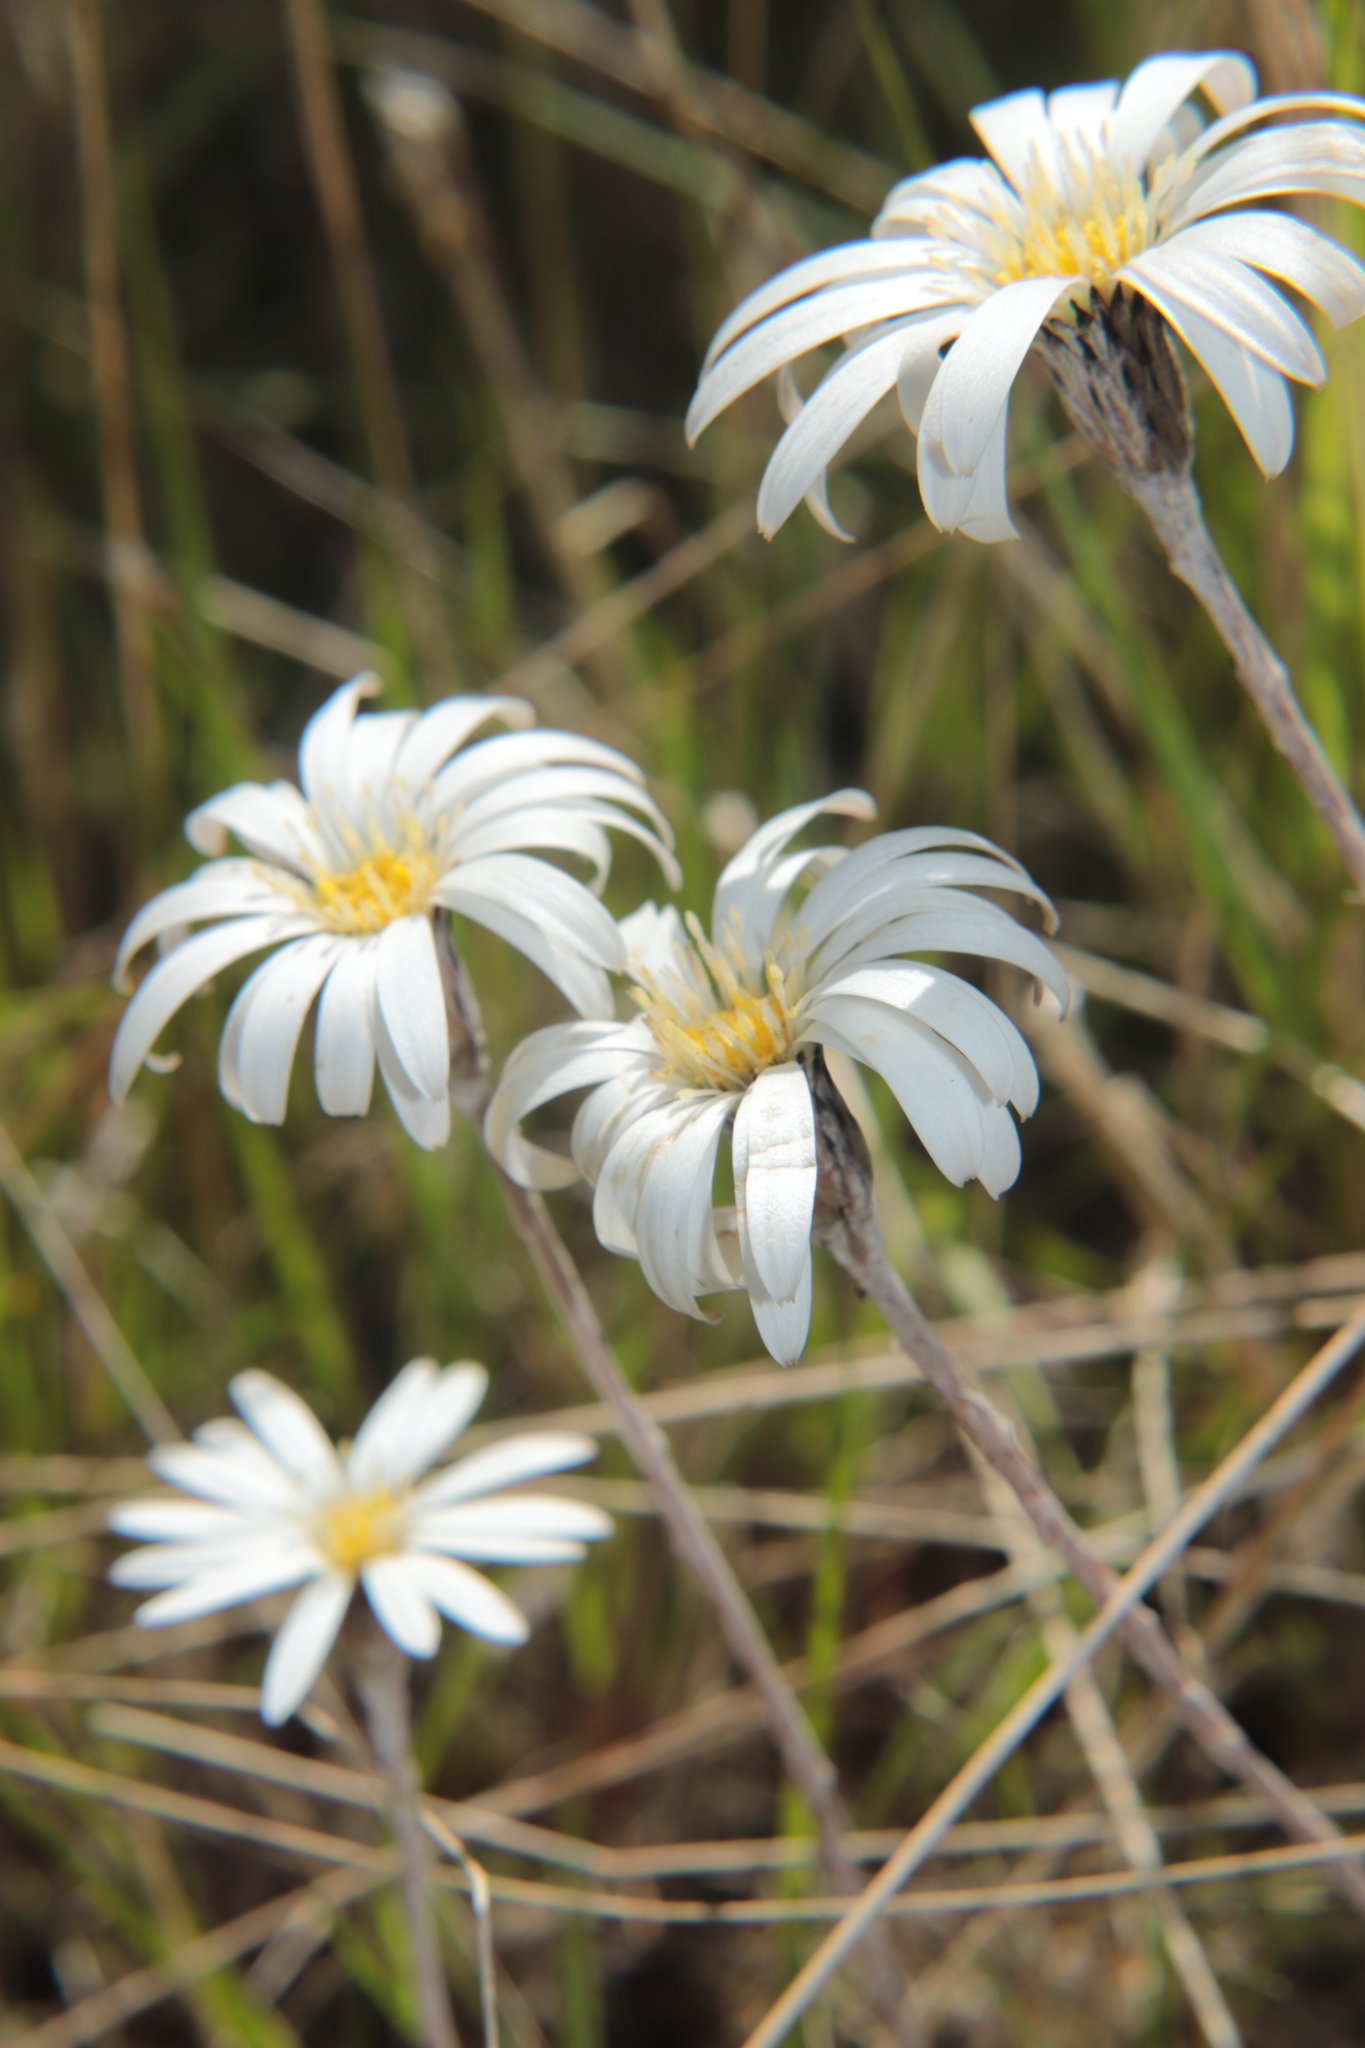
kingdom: Plantae
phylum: Tracheophyta
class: Magnoliopsida
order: Asterales
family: Asteraceae
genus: Celmisia
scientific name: Celmisia gracilenta
